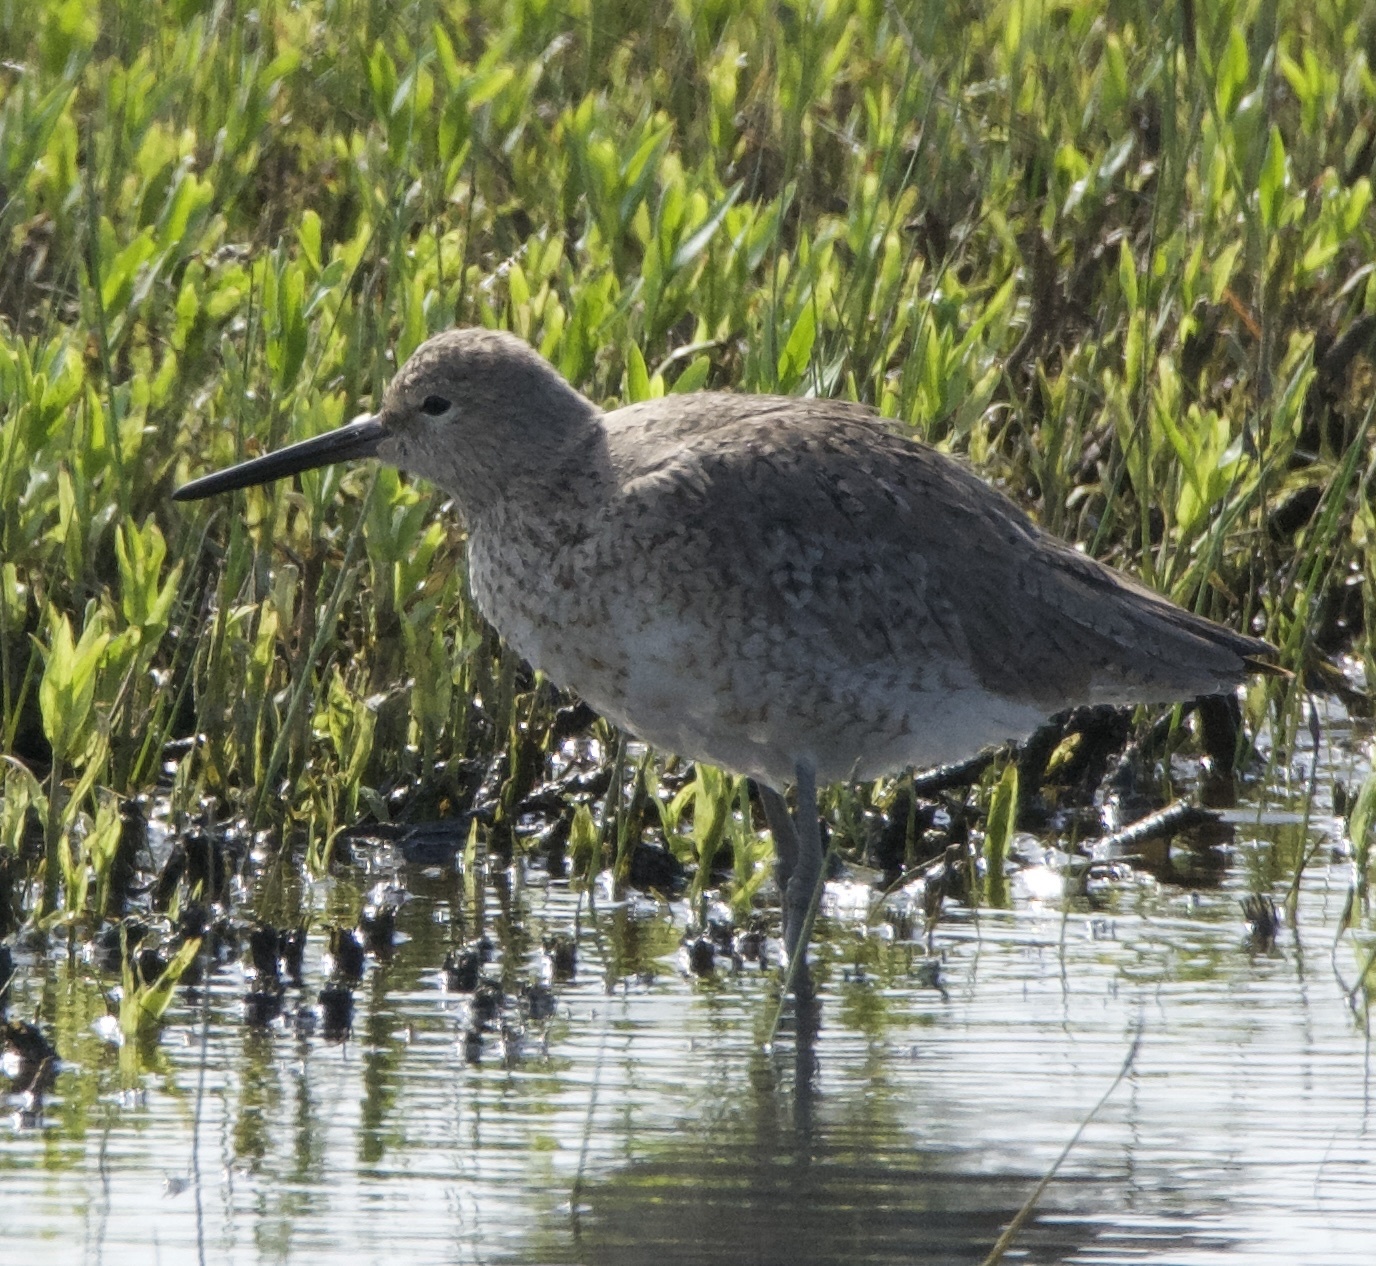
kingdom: Animalia
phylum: Chordata
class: Aves
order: Charadriiformes
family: Scolopacidae
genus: Tringa
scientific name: Tringa semipalmata
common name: Willet
